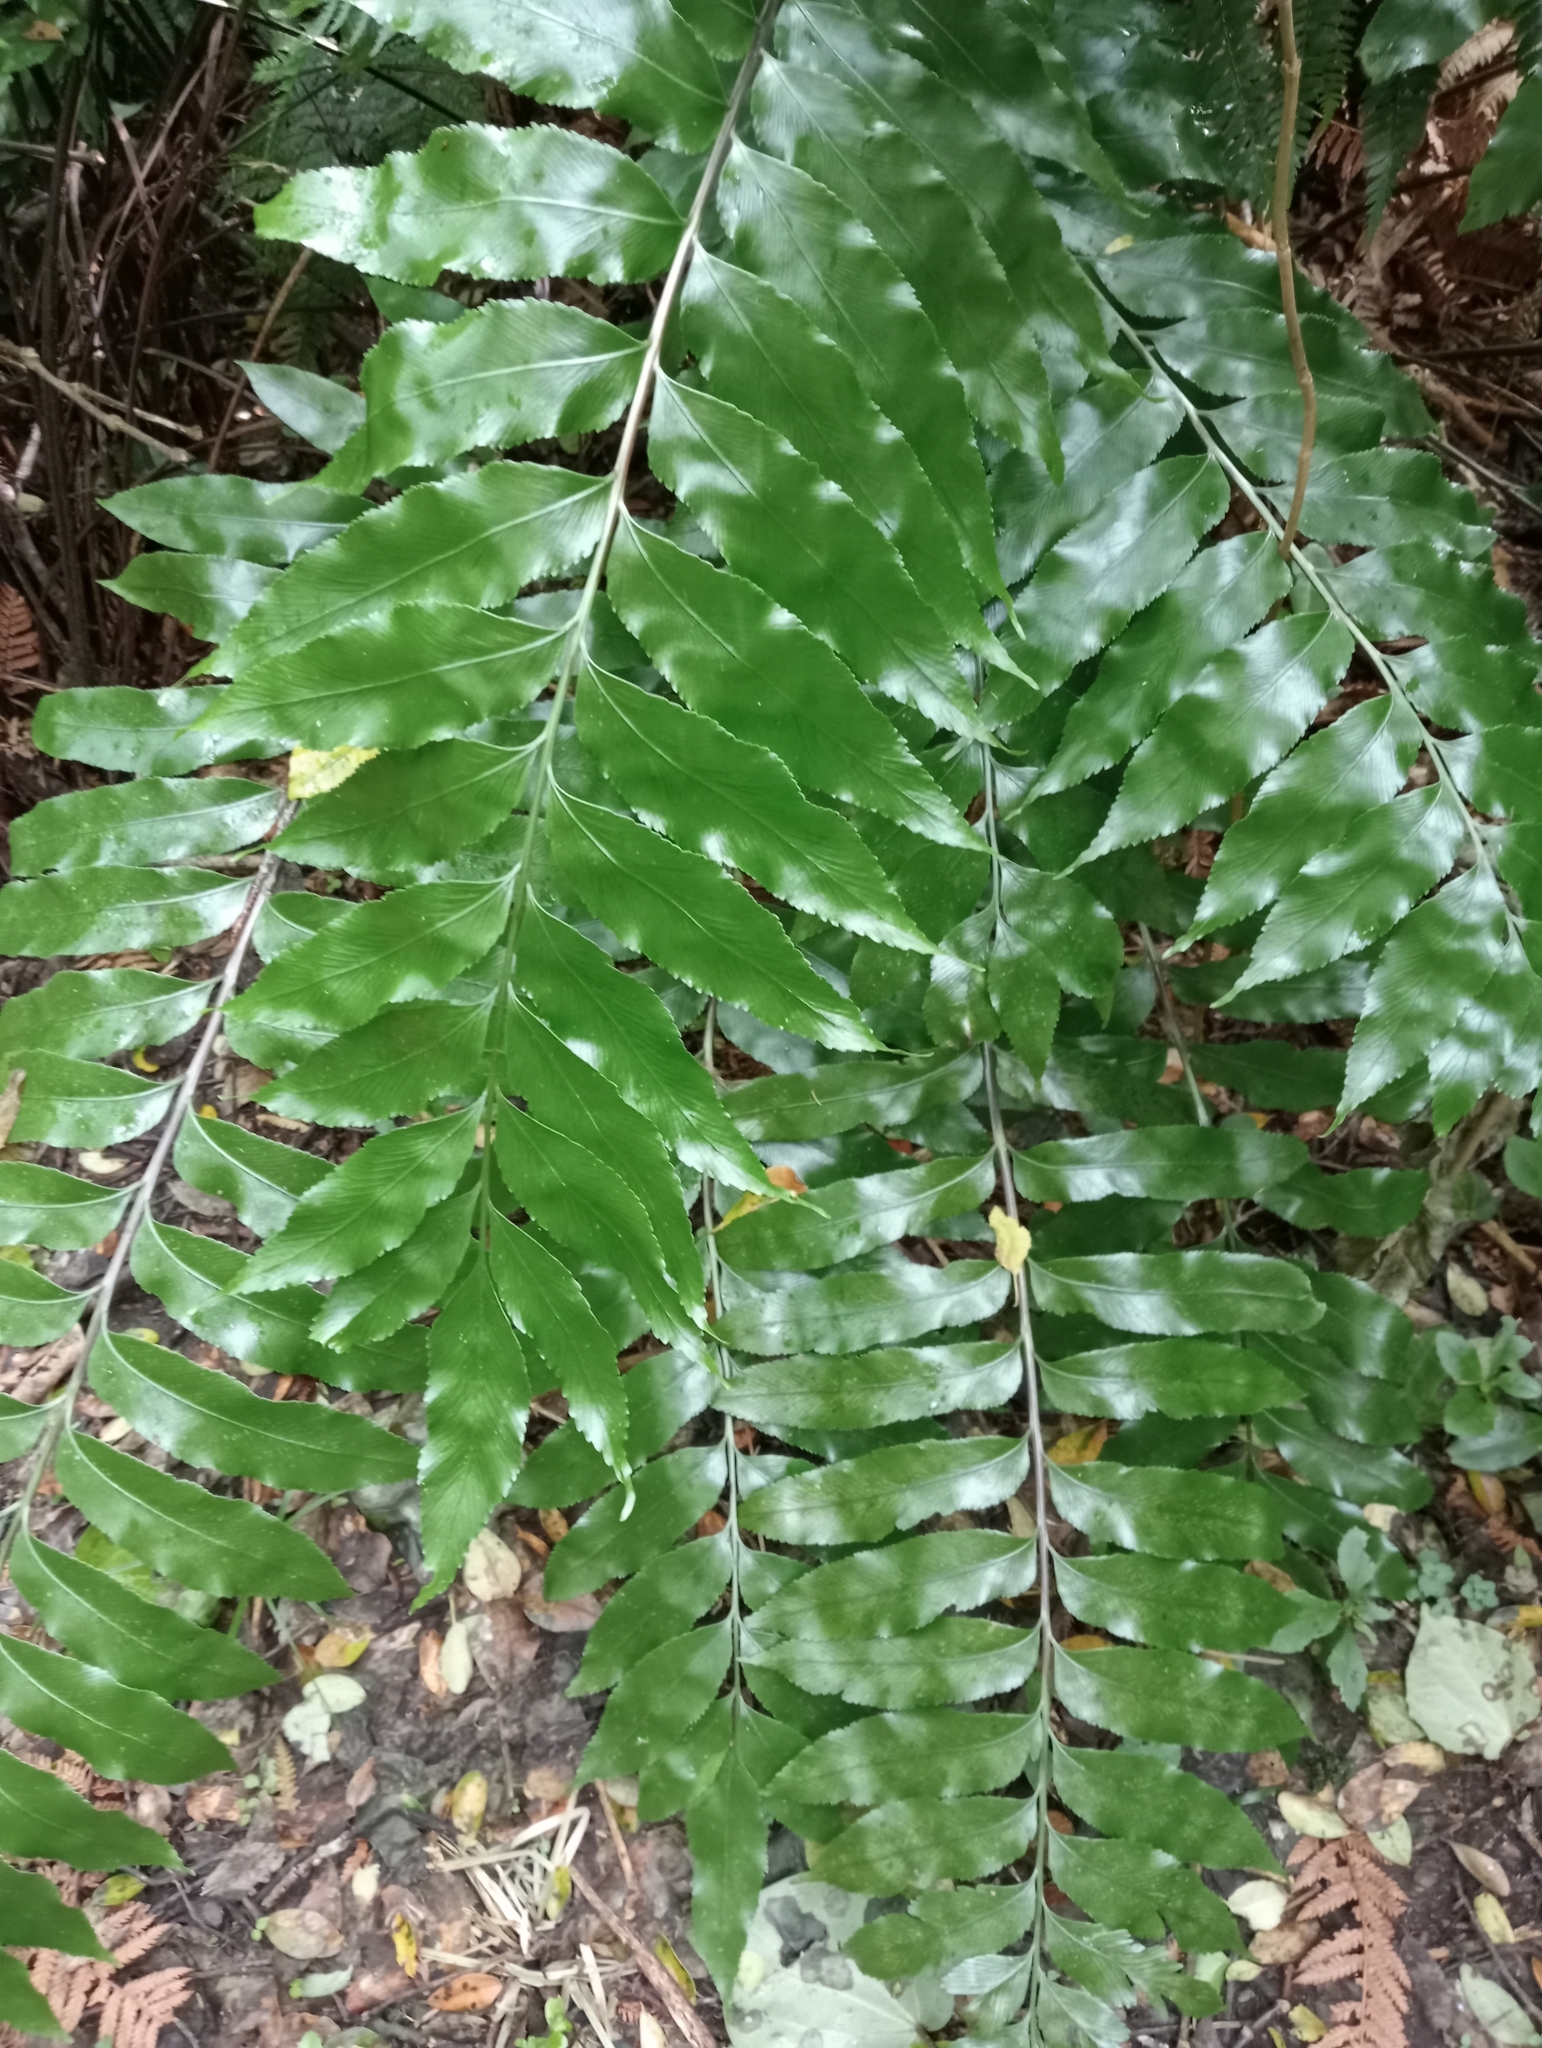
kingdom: Plantae
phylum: Tracheophyta
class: Polypodiopsida
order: Polypodiales
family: Aspleniaceae
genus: Asplenium
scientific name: Asplenium oblongifolium
